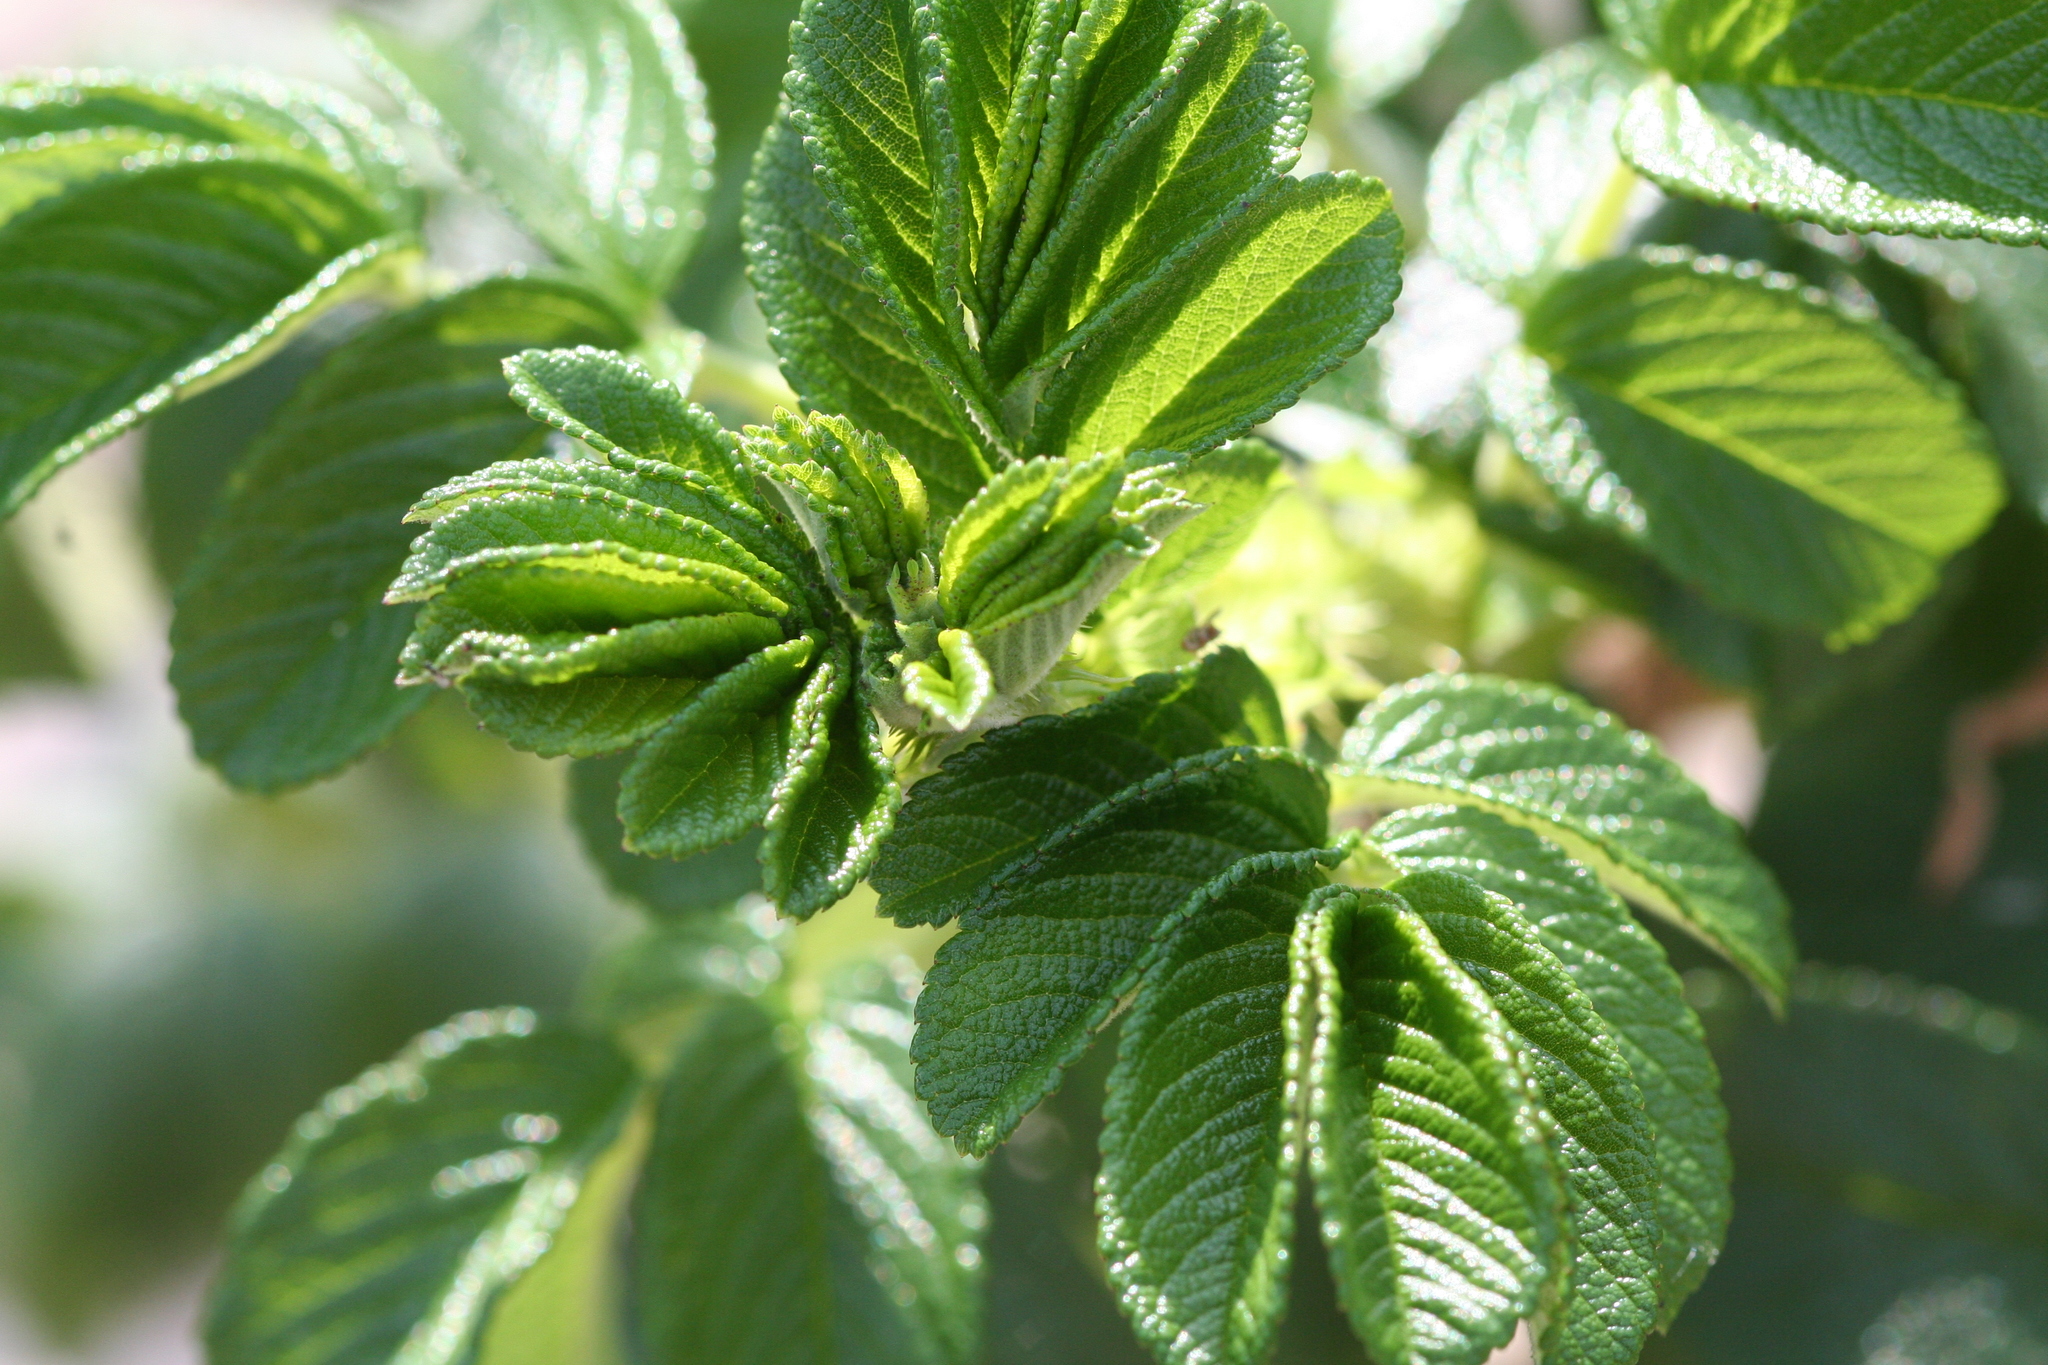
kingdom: Plantae
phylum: Tracheophyta
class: Magnoliopsida
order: Rosales
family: Rosaceae
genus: Rosa
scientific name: Rosa rugosa
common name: Japanese rose
